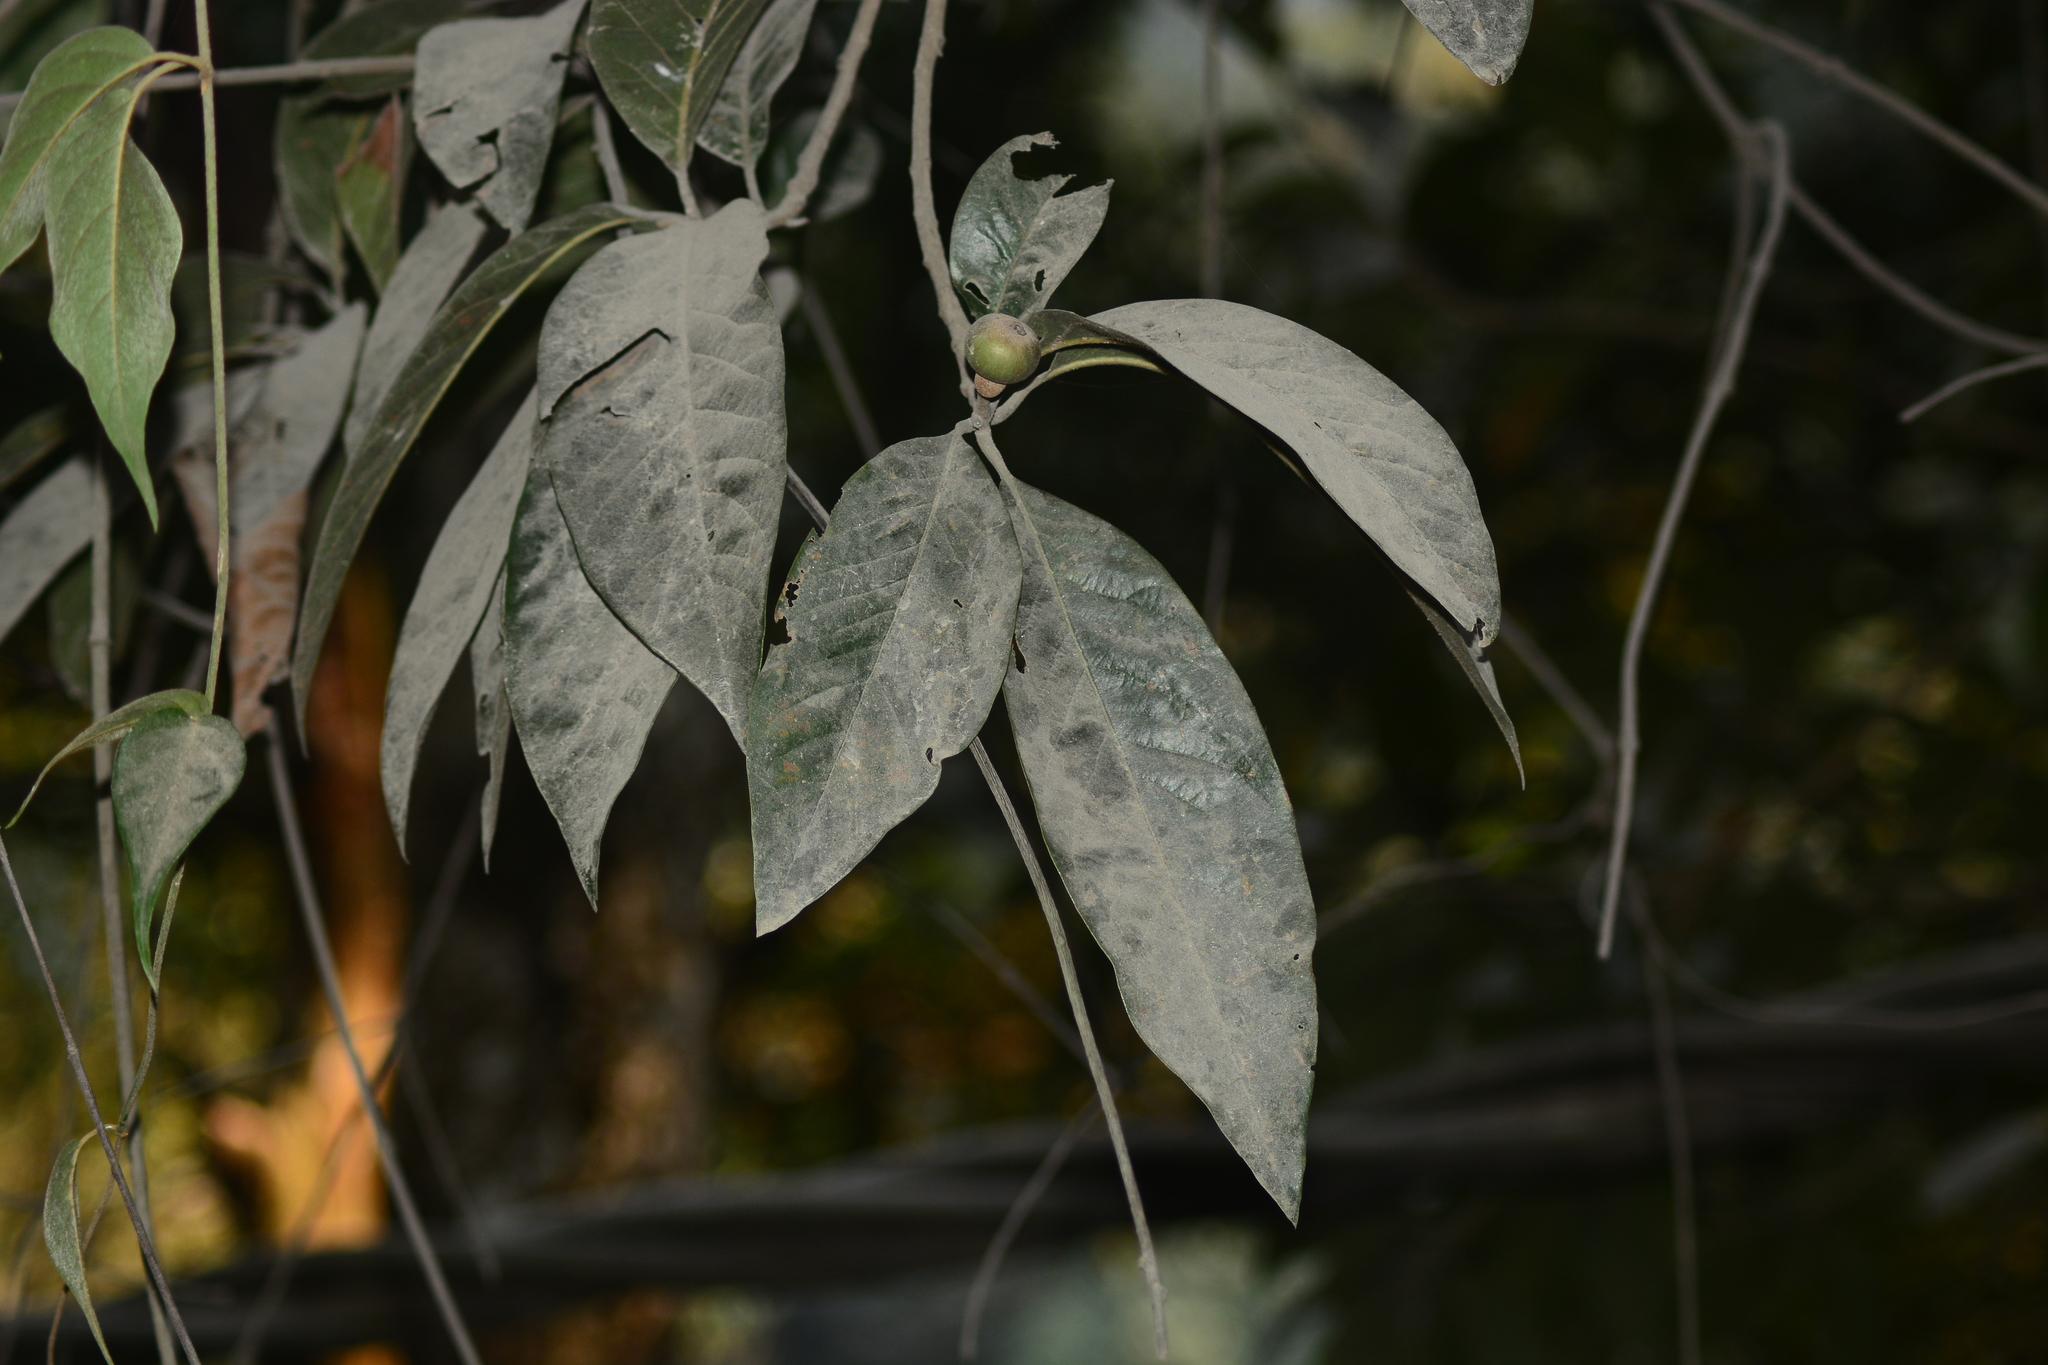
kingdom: Plantae
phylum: Tracheophyta
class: Magnoliopsida
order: Ericales
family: Theaceae
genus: Schima
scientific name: Schima wallichii
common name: Schima
